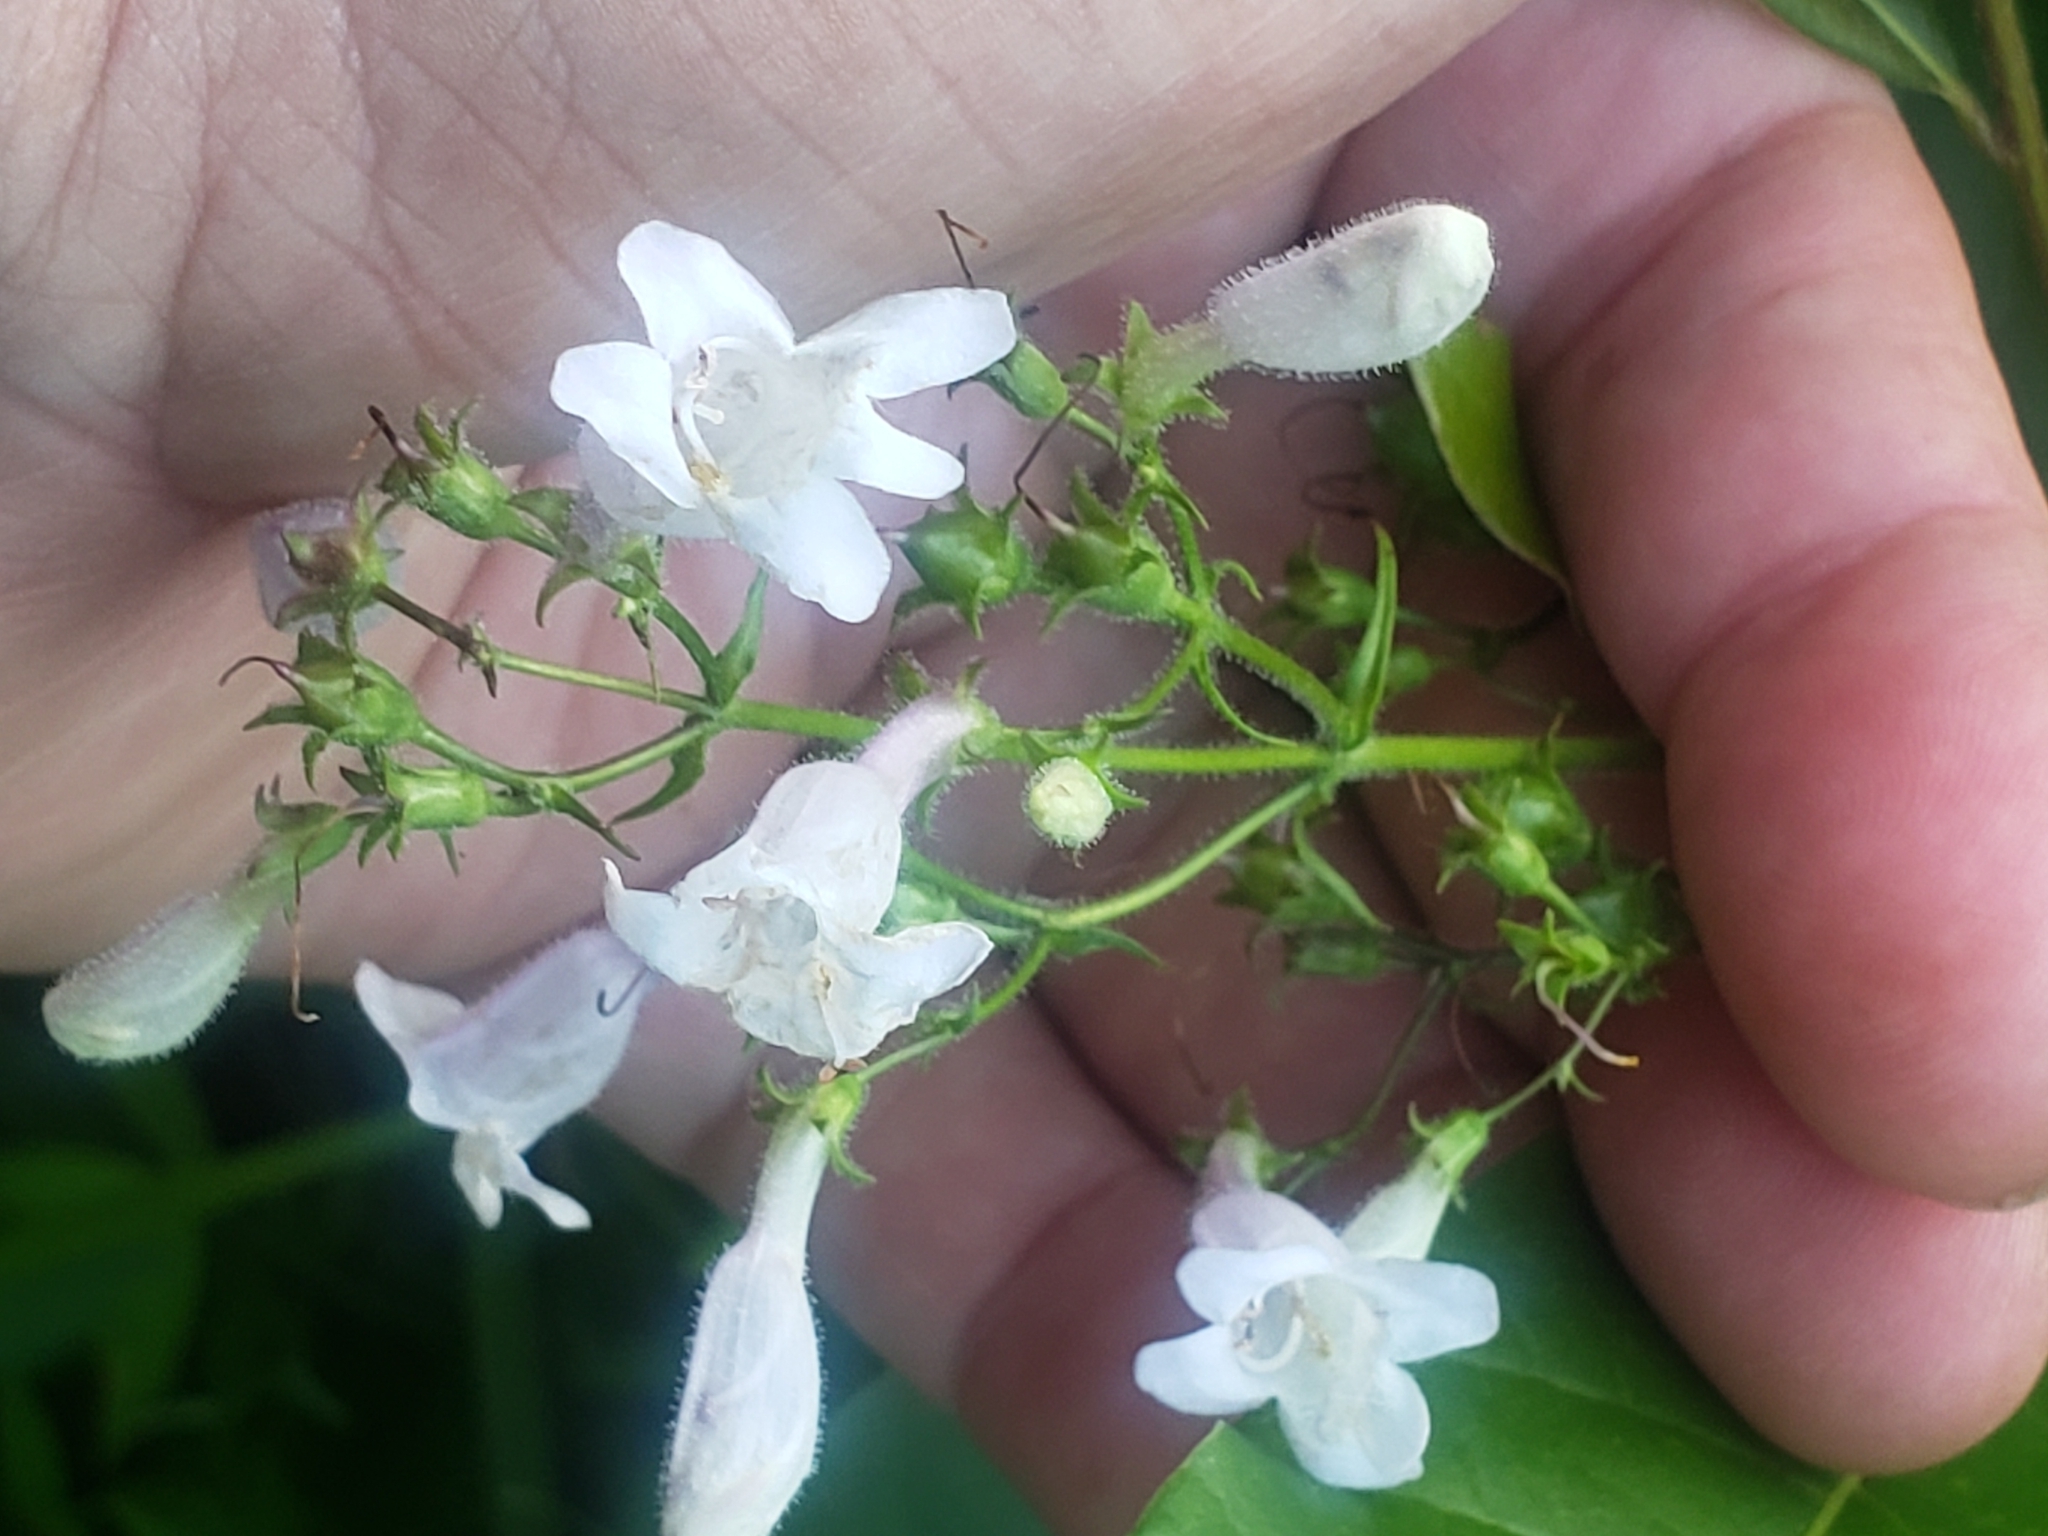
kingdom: Plantae
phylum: Tracheophyta
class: Magnoliopsida
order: Lamiales
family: Plantaginaceae
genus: Penstemon
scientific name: Penstemon digitalis
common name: Foxglove beardtongue
